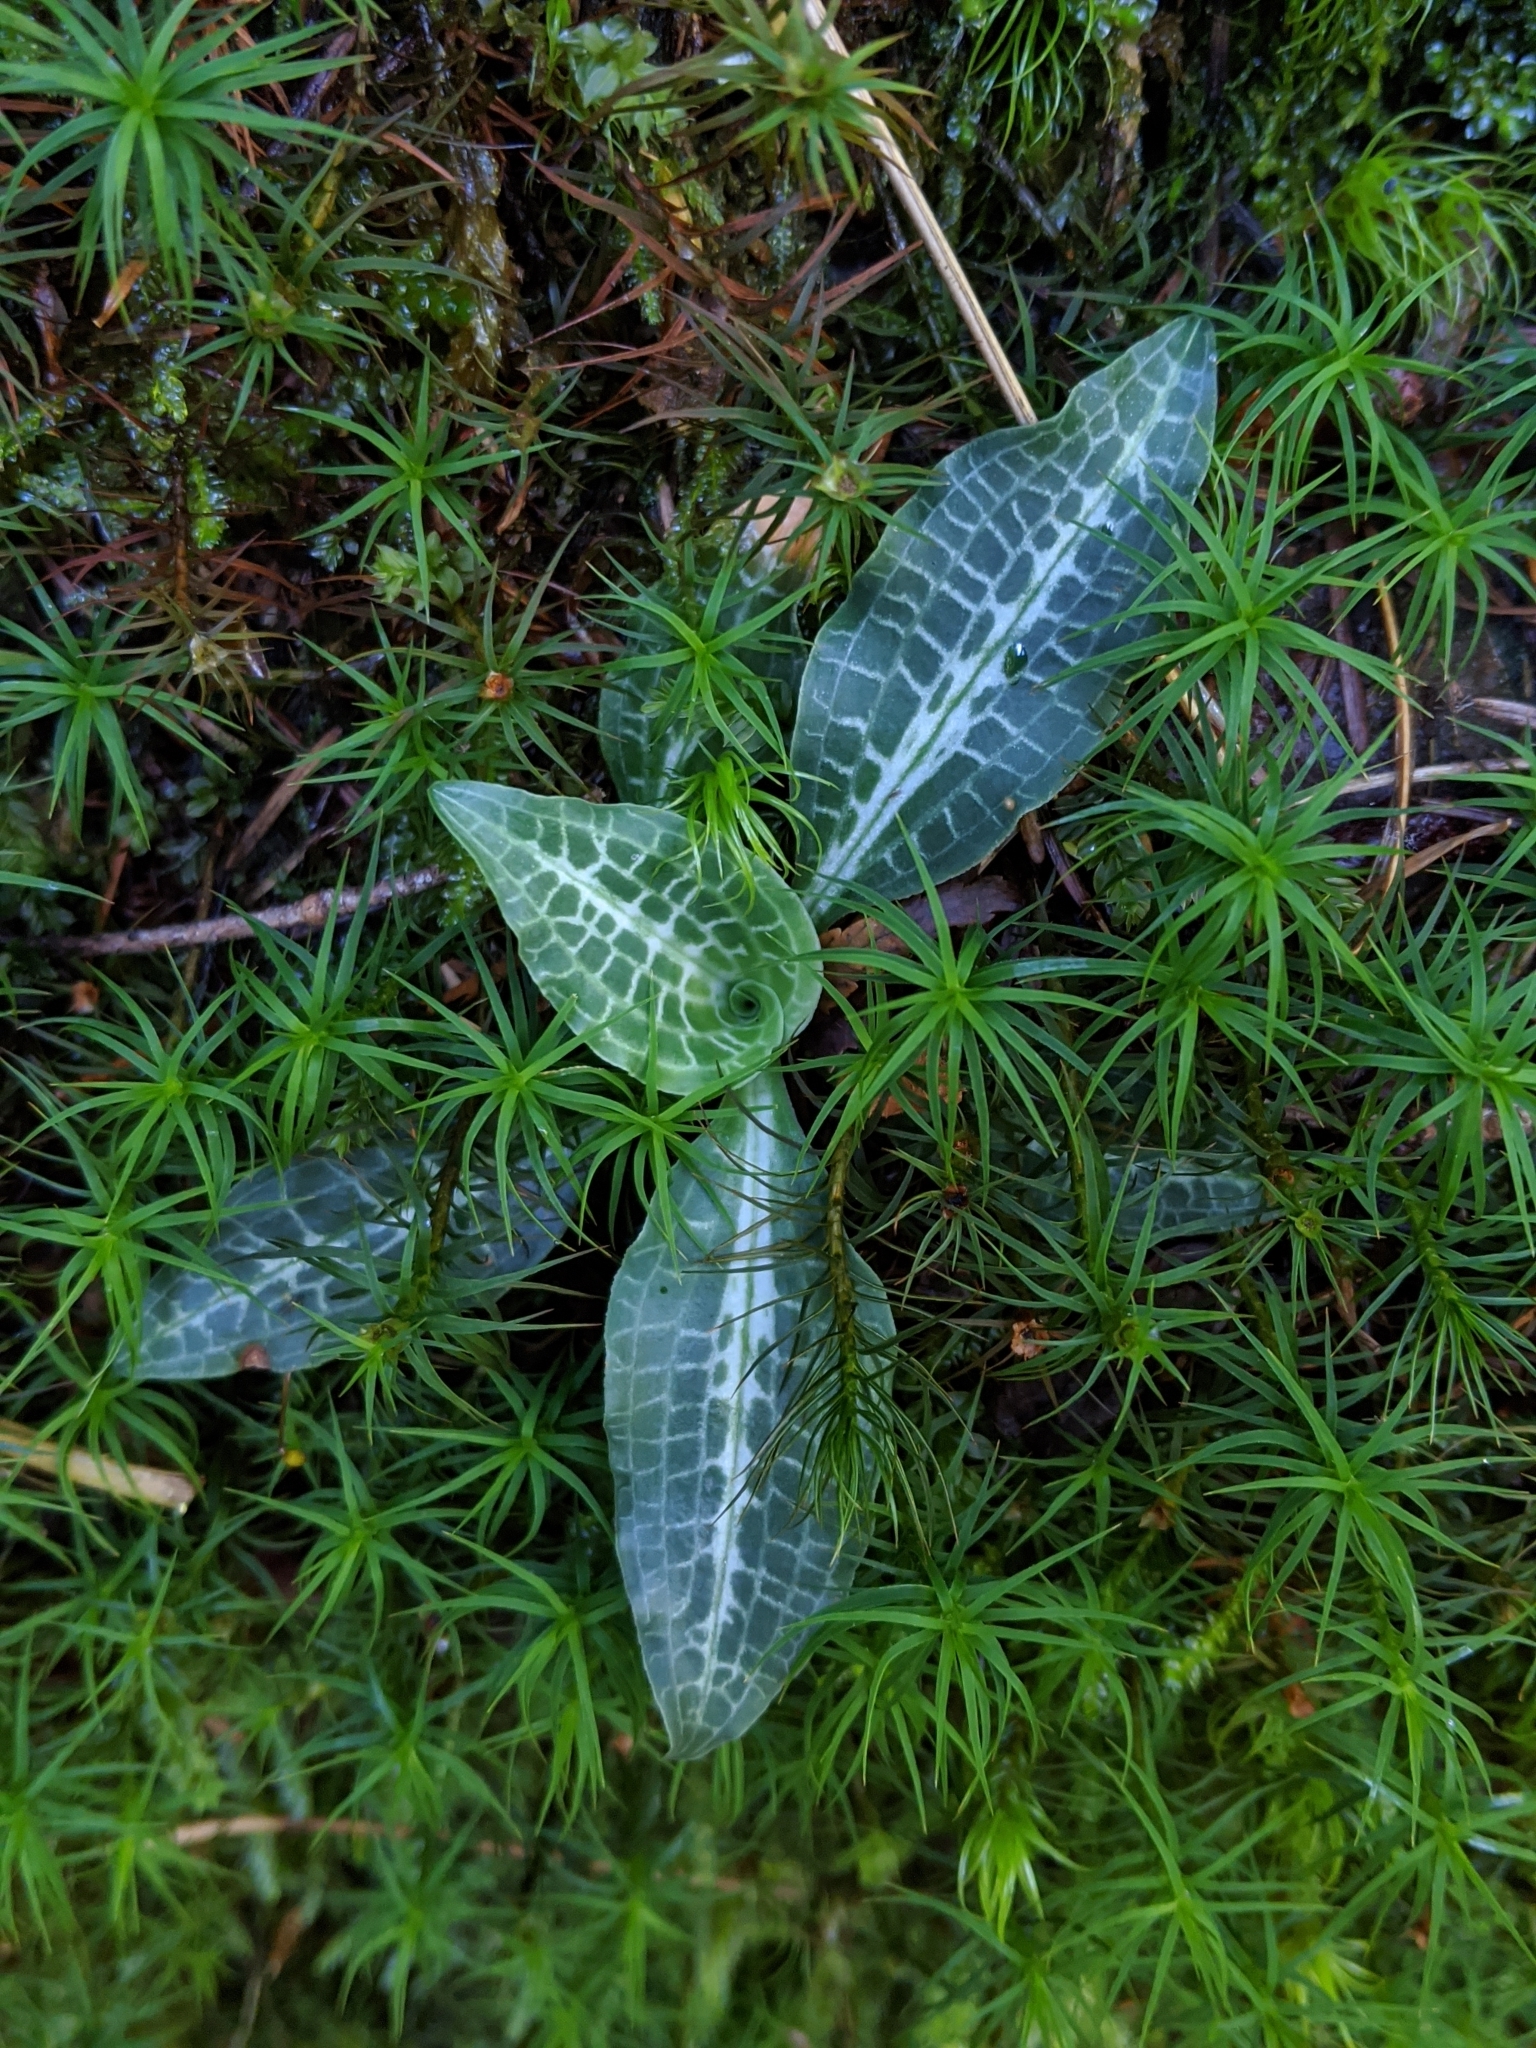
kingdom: Plantae
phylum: Tracheophyta
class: Liliopsida
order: Asparagales
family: Orchidaceae
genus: Goodyera
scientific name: Goodyera oblongifolia
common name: Giant rattlesnake-plantain
